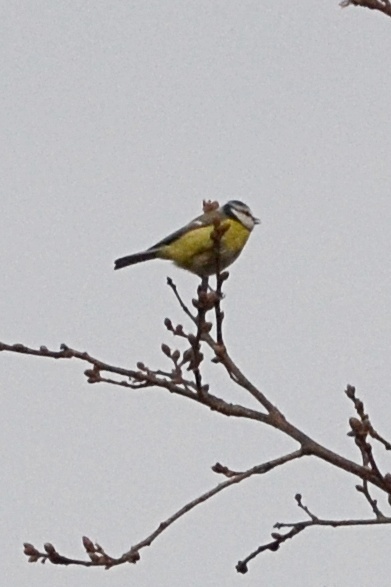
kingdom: Animalia
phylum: Chordata
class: Aves
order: Passeriformes
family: Paridae
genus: Cyanistes
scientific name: Cyanistes caeruleus
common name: Eurasian blue tit
